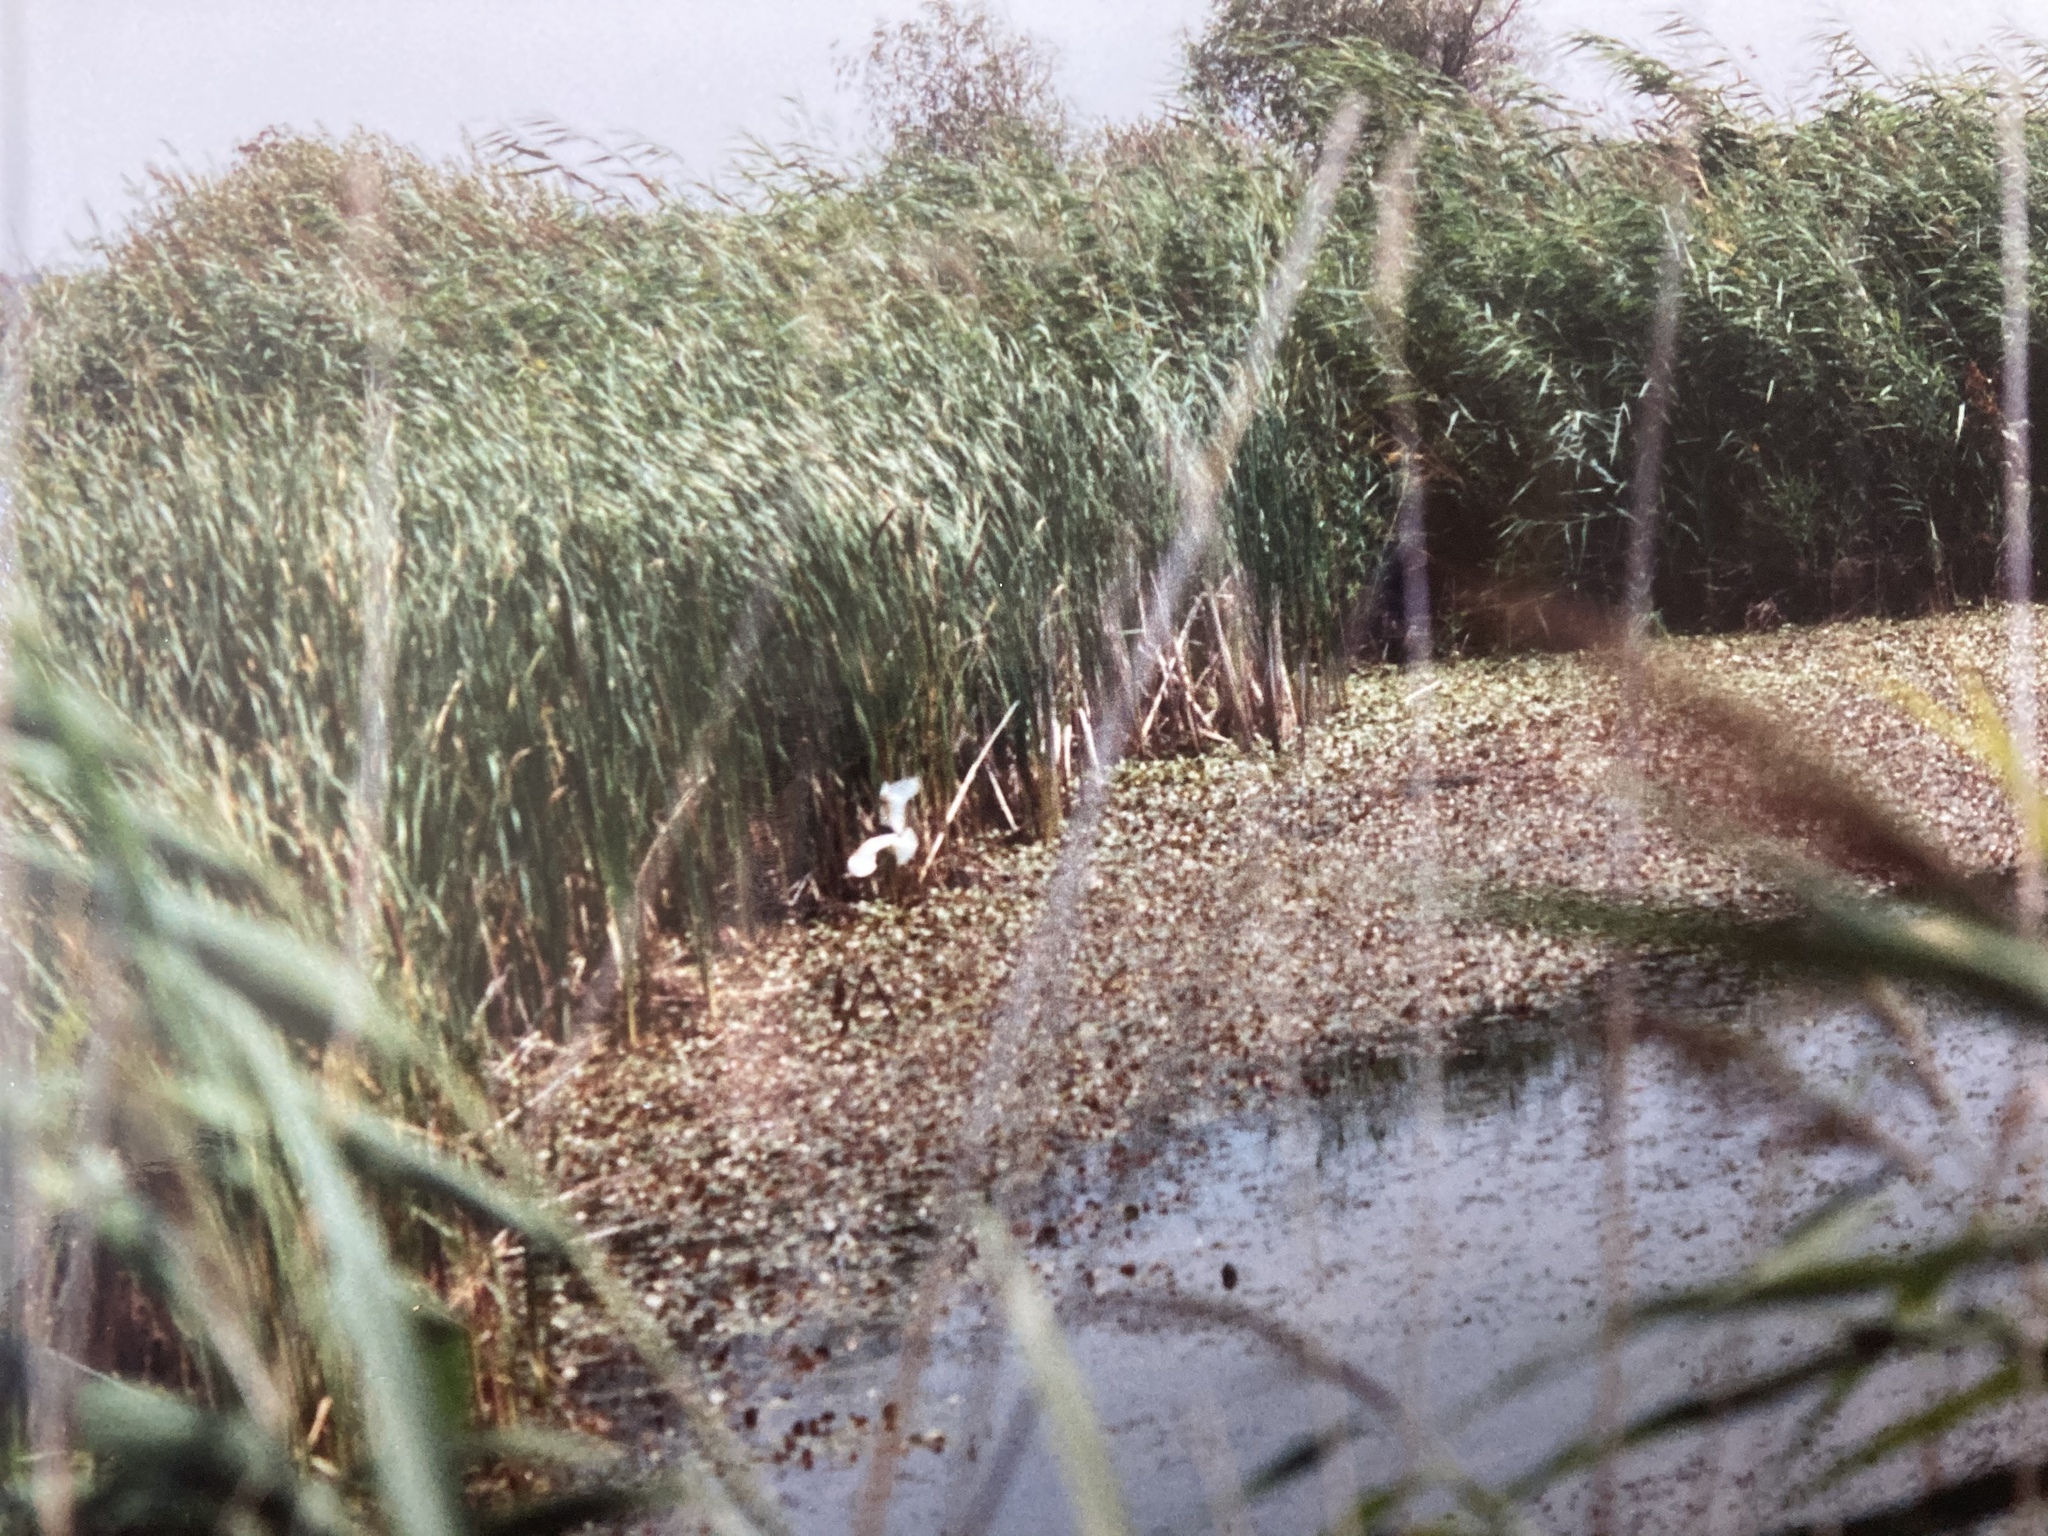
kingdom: Animalia
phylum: Chordata
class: Aves
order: Pelecaniformes
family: Ardeidae
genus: Ardeola
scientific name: Ardeola ralloides
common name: Squacco heron
